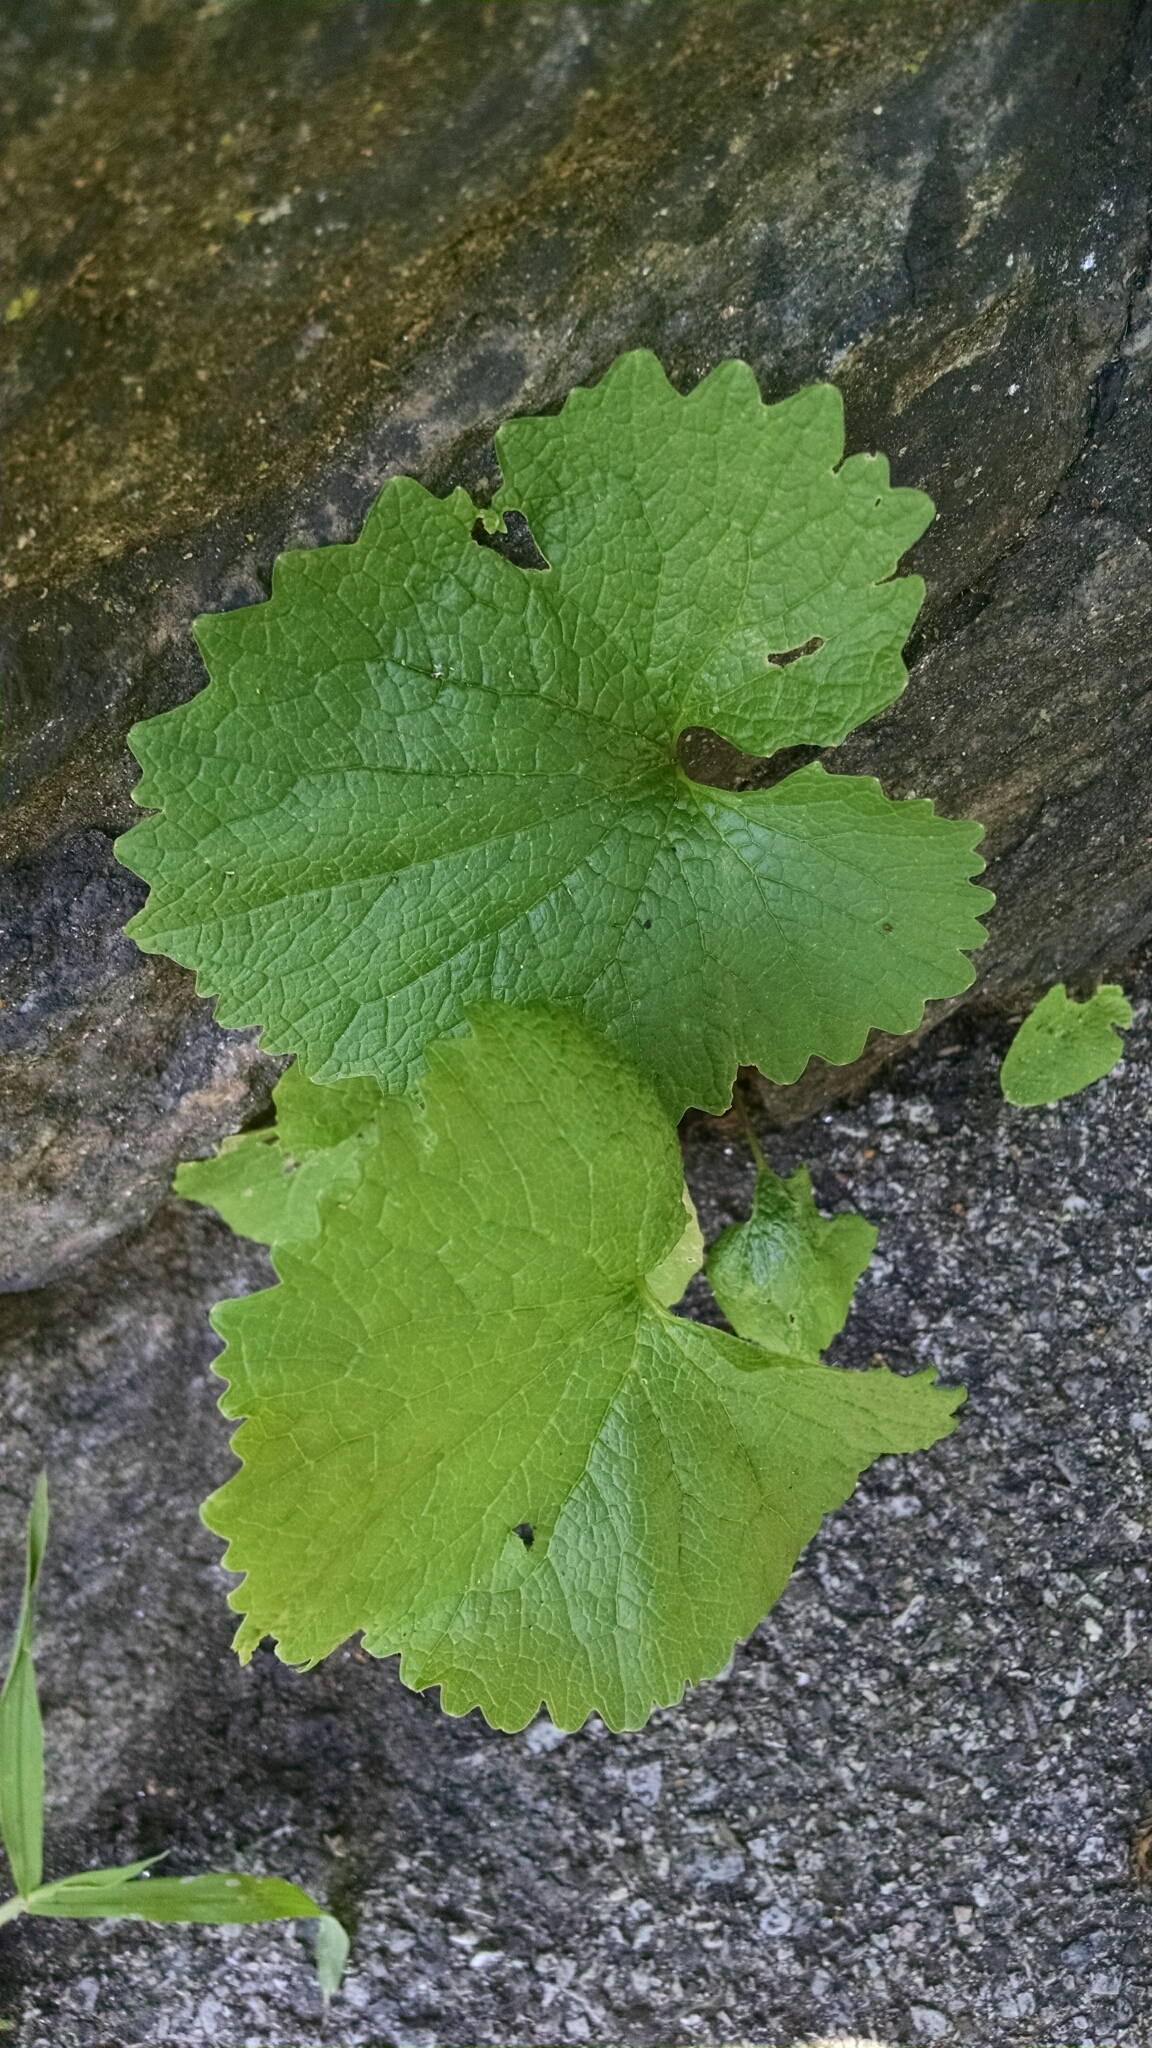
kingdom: Plantae
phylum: Tracheophyta
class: Magnoliopsida
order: Brassicales
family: Brassicaceae
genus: Alliaria
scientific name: Alliaria petiolata
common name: Garlic mustard
